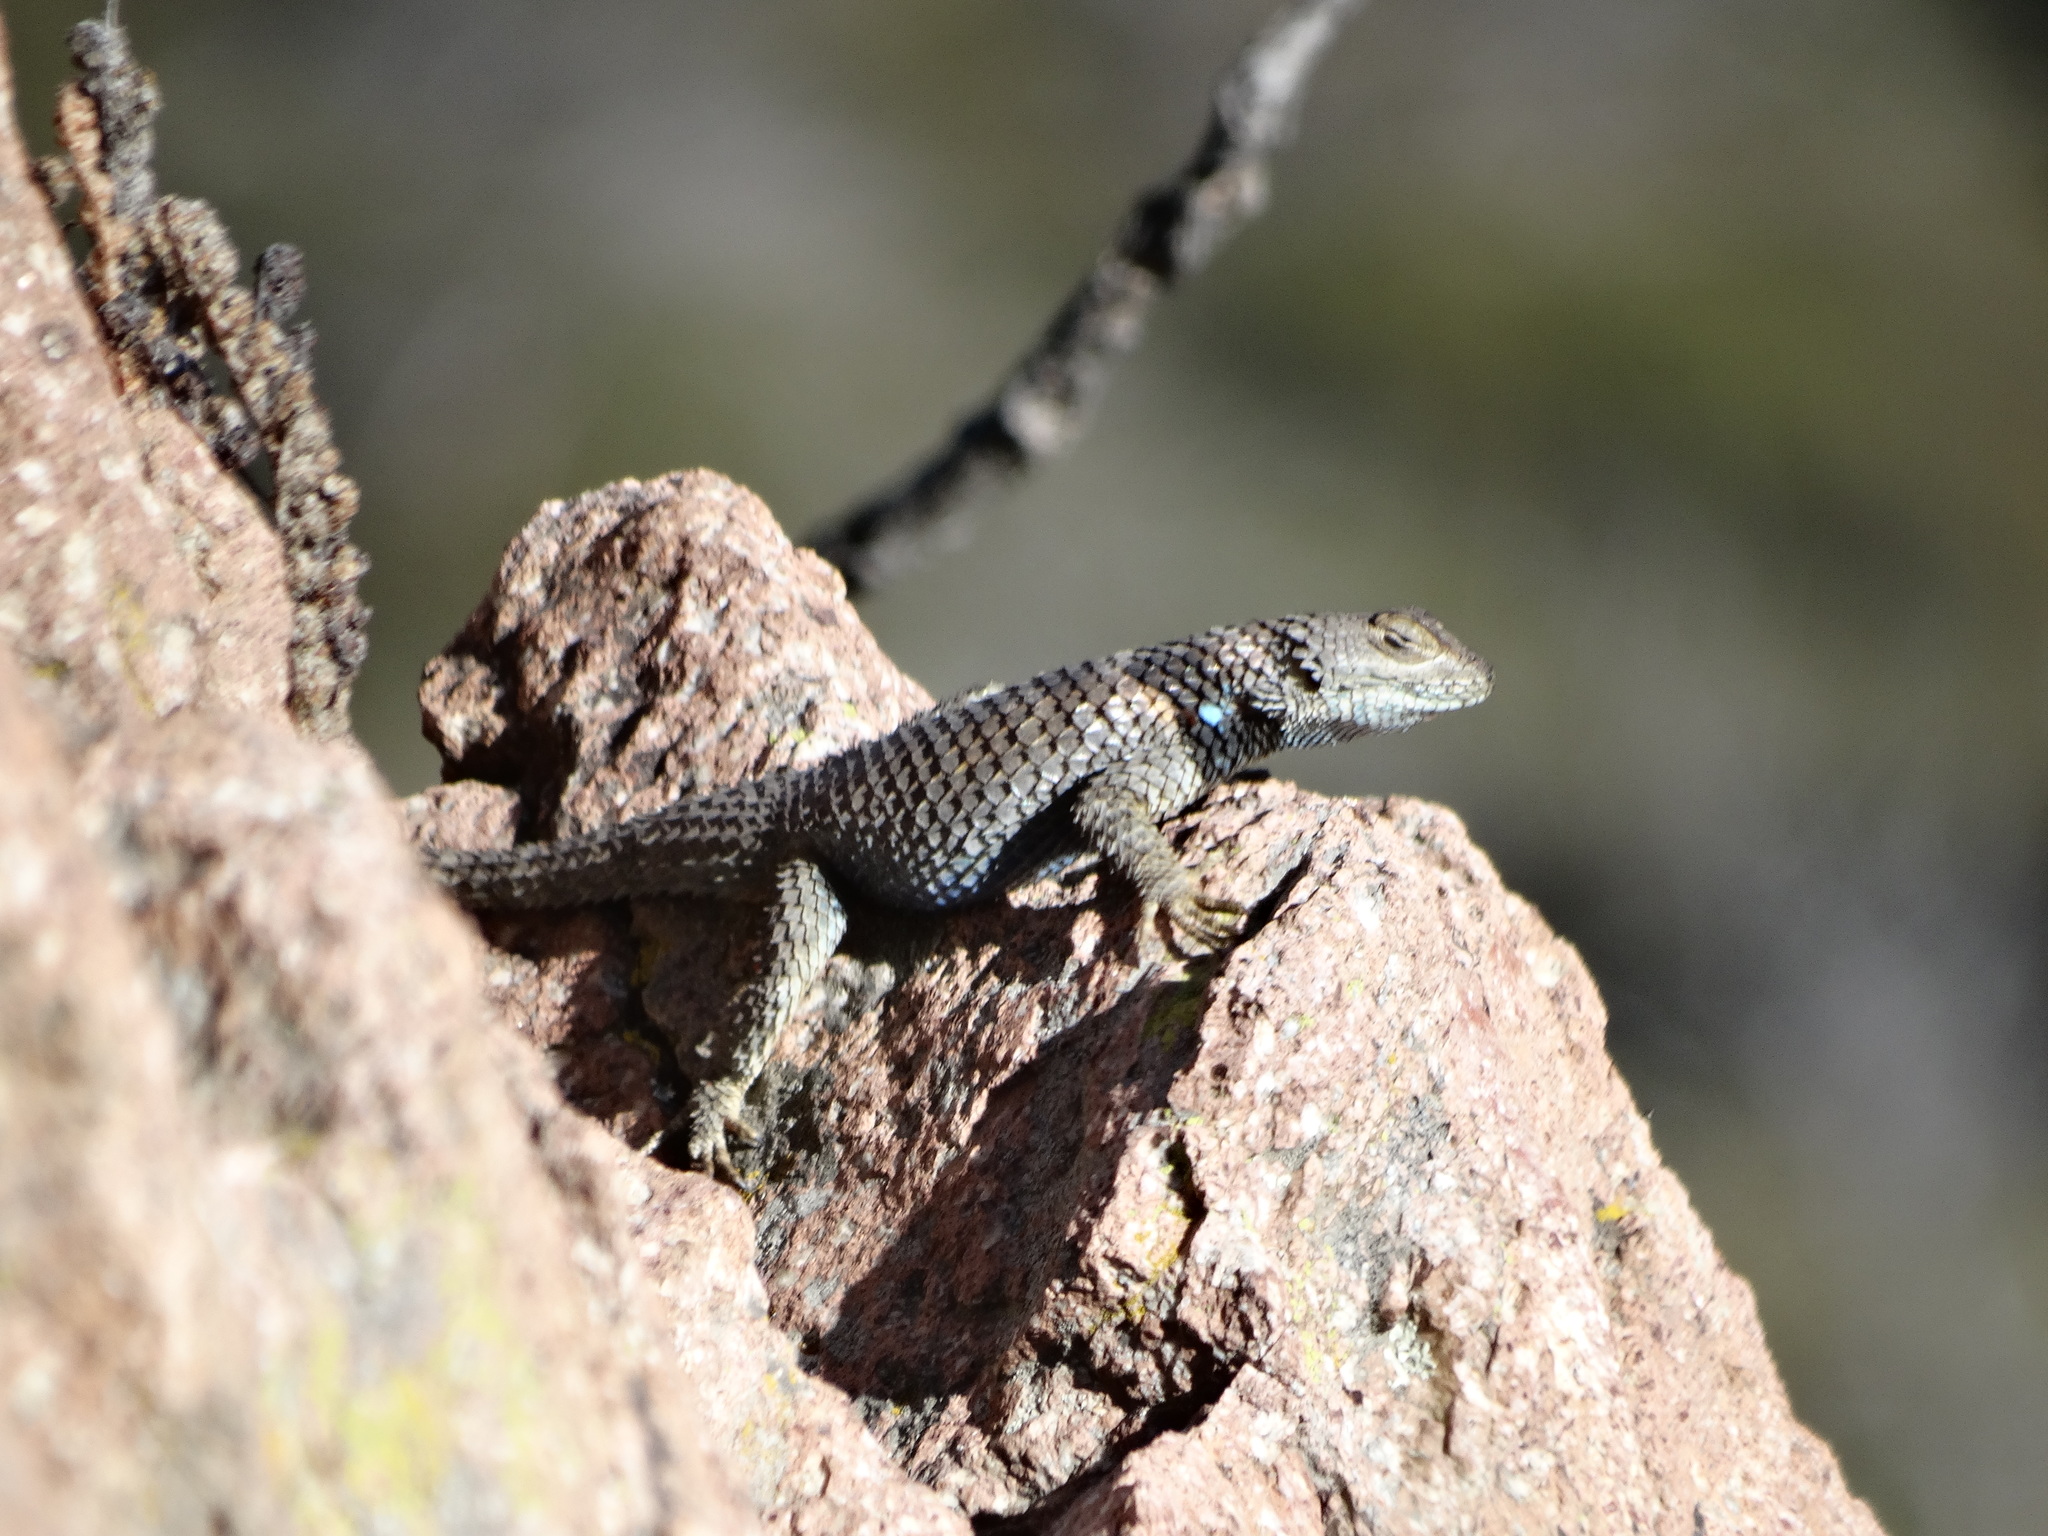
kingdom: Animalia
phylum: Chordata
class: Squamata
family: Phrynosomatidae
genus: Sceloporus
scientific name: Sceloporus torquatus
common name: Central plateau torquate lizard [melanogaster]
